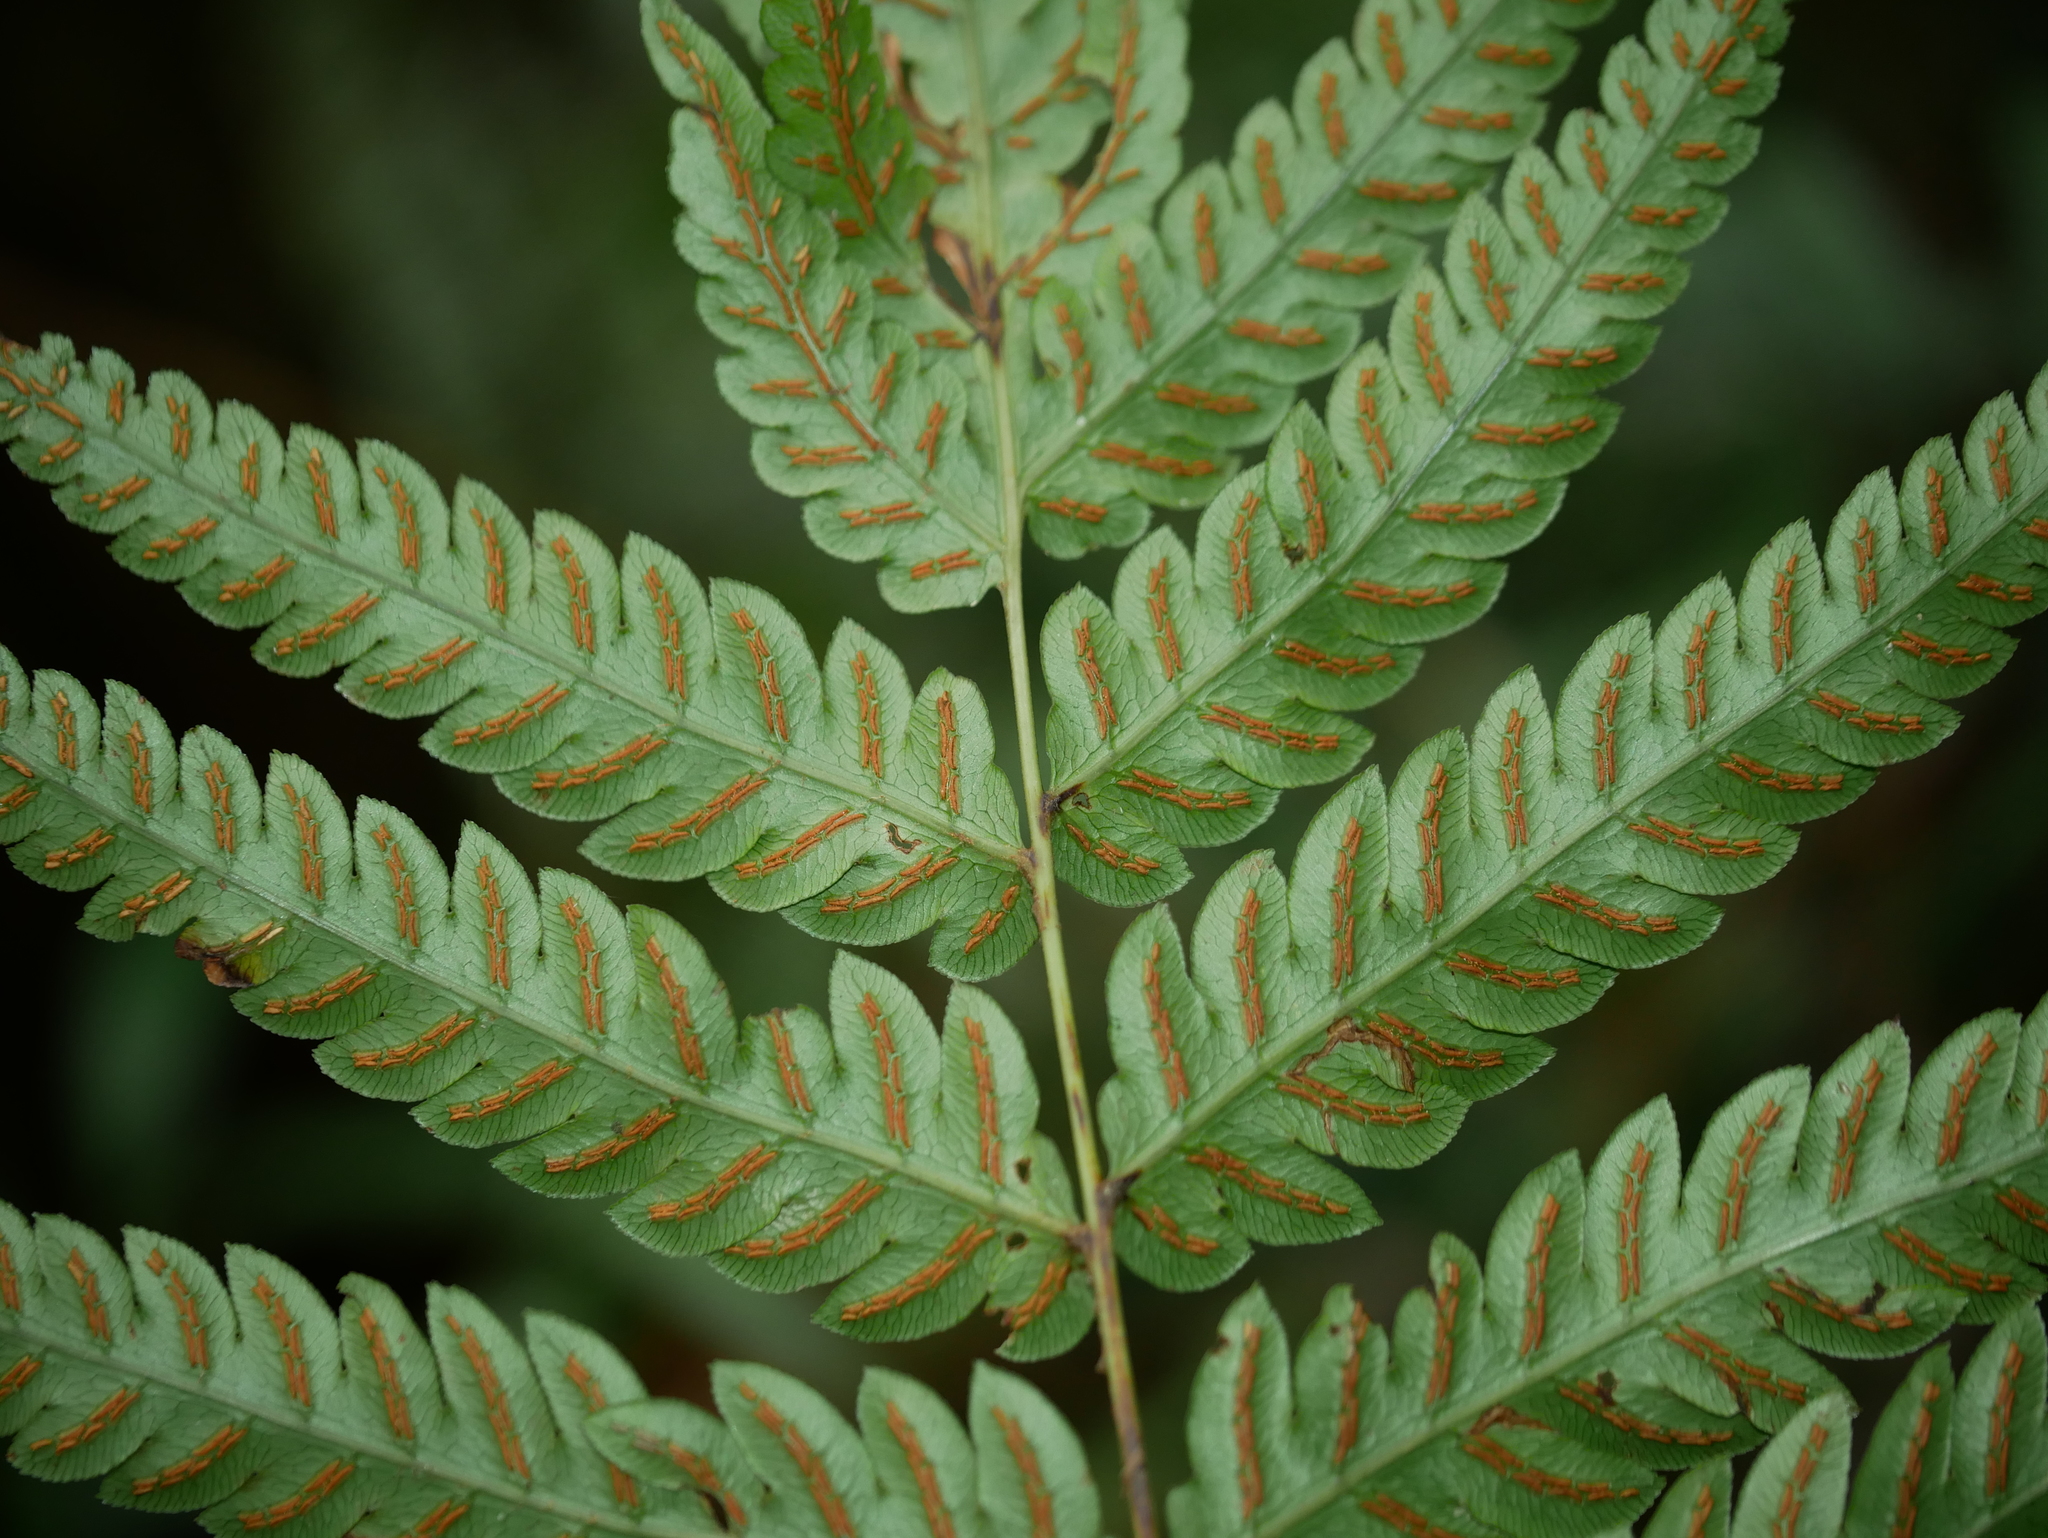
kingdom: Plantae
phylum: Tracheophyta
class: Polypodiopsida
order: Polypodiales
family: Blechnaceae
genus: Woodwardia
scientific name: Woodwardia japonica
